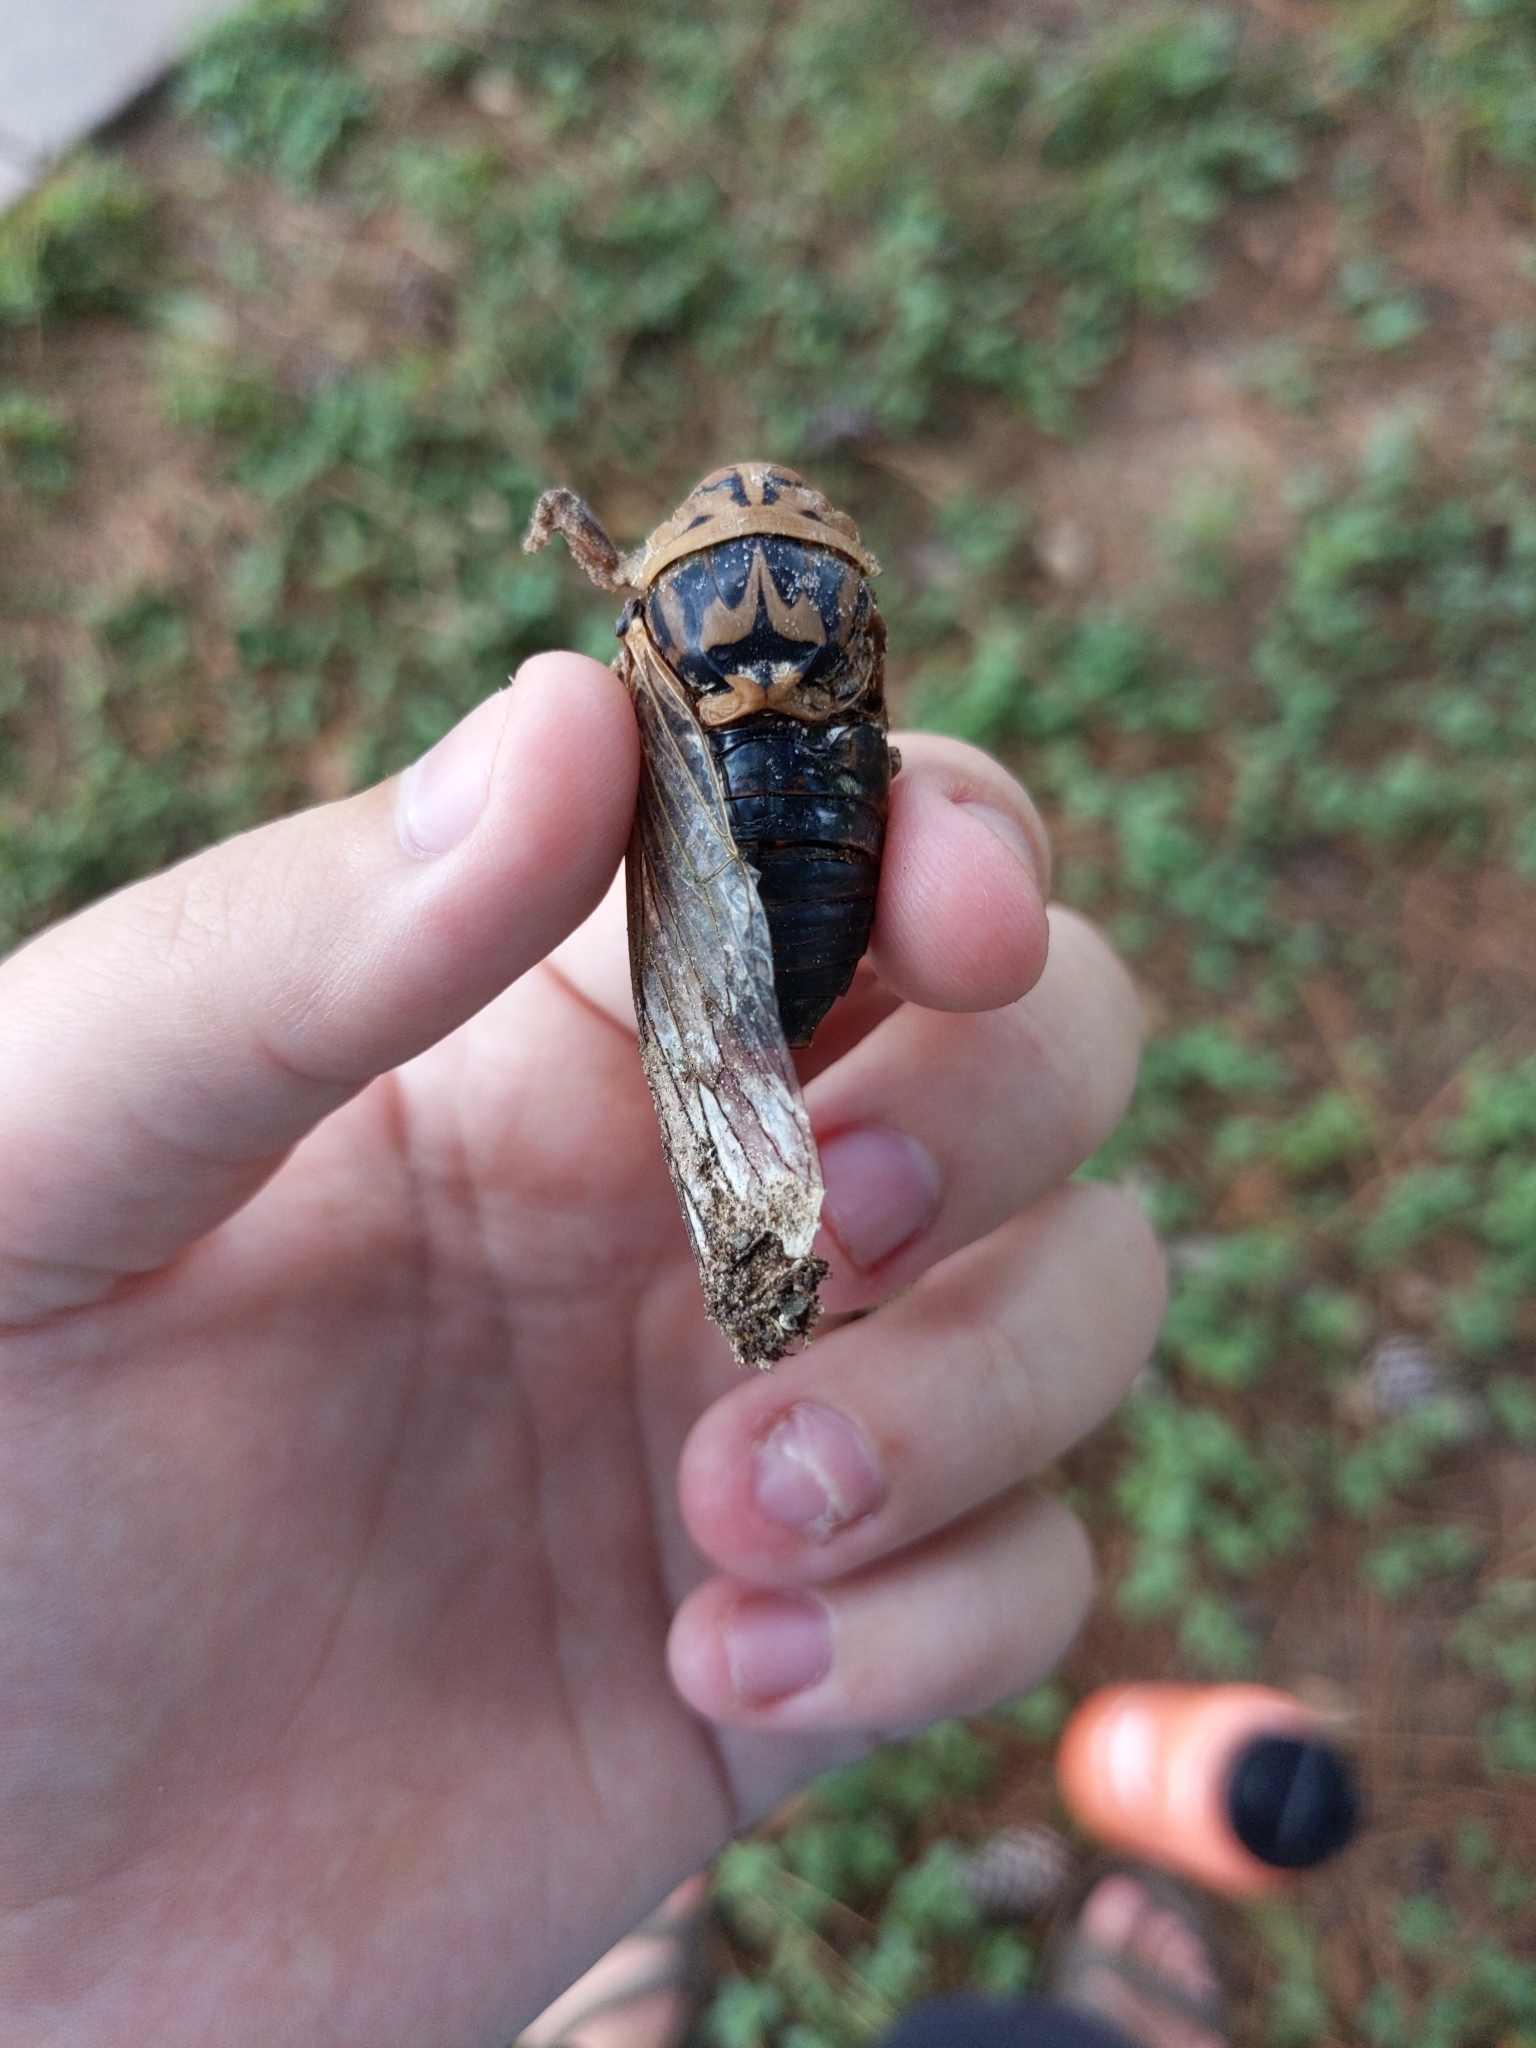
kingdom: Animalia
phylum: Arthropoda
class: Insecta
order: Hemiptera
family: Cicadidae
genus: Megatibicen
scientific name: Megatibicen resh
